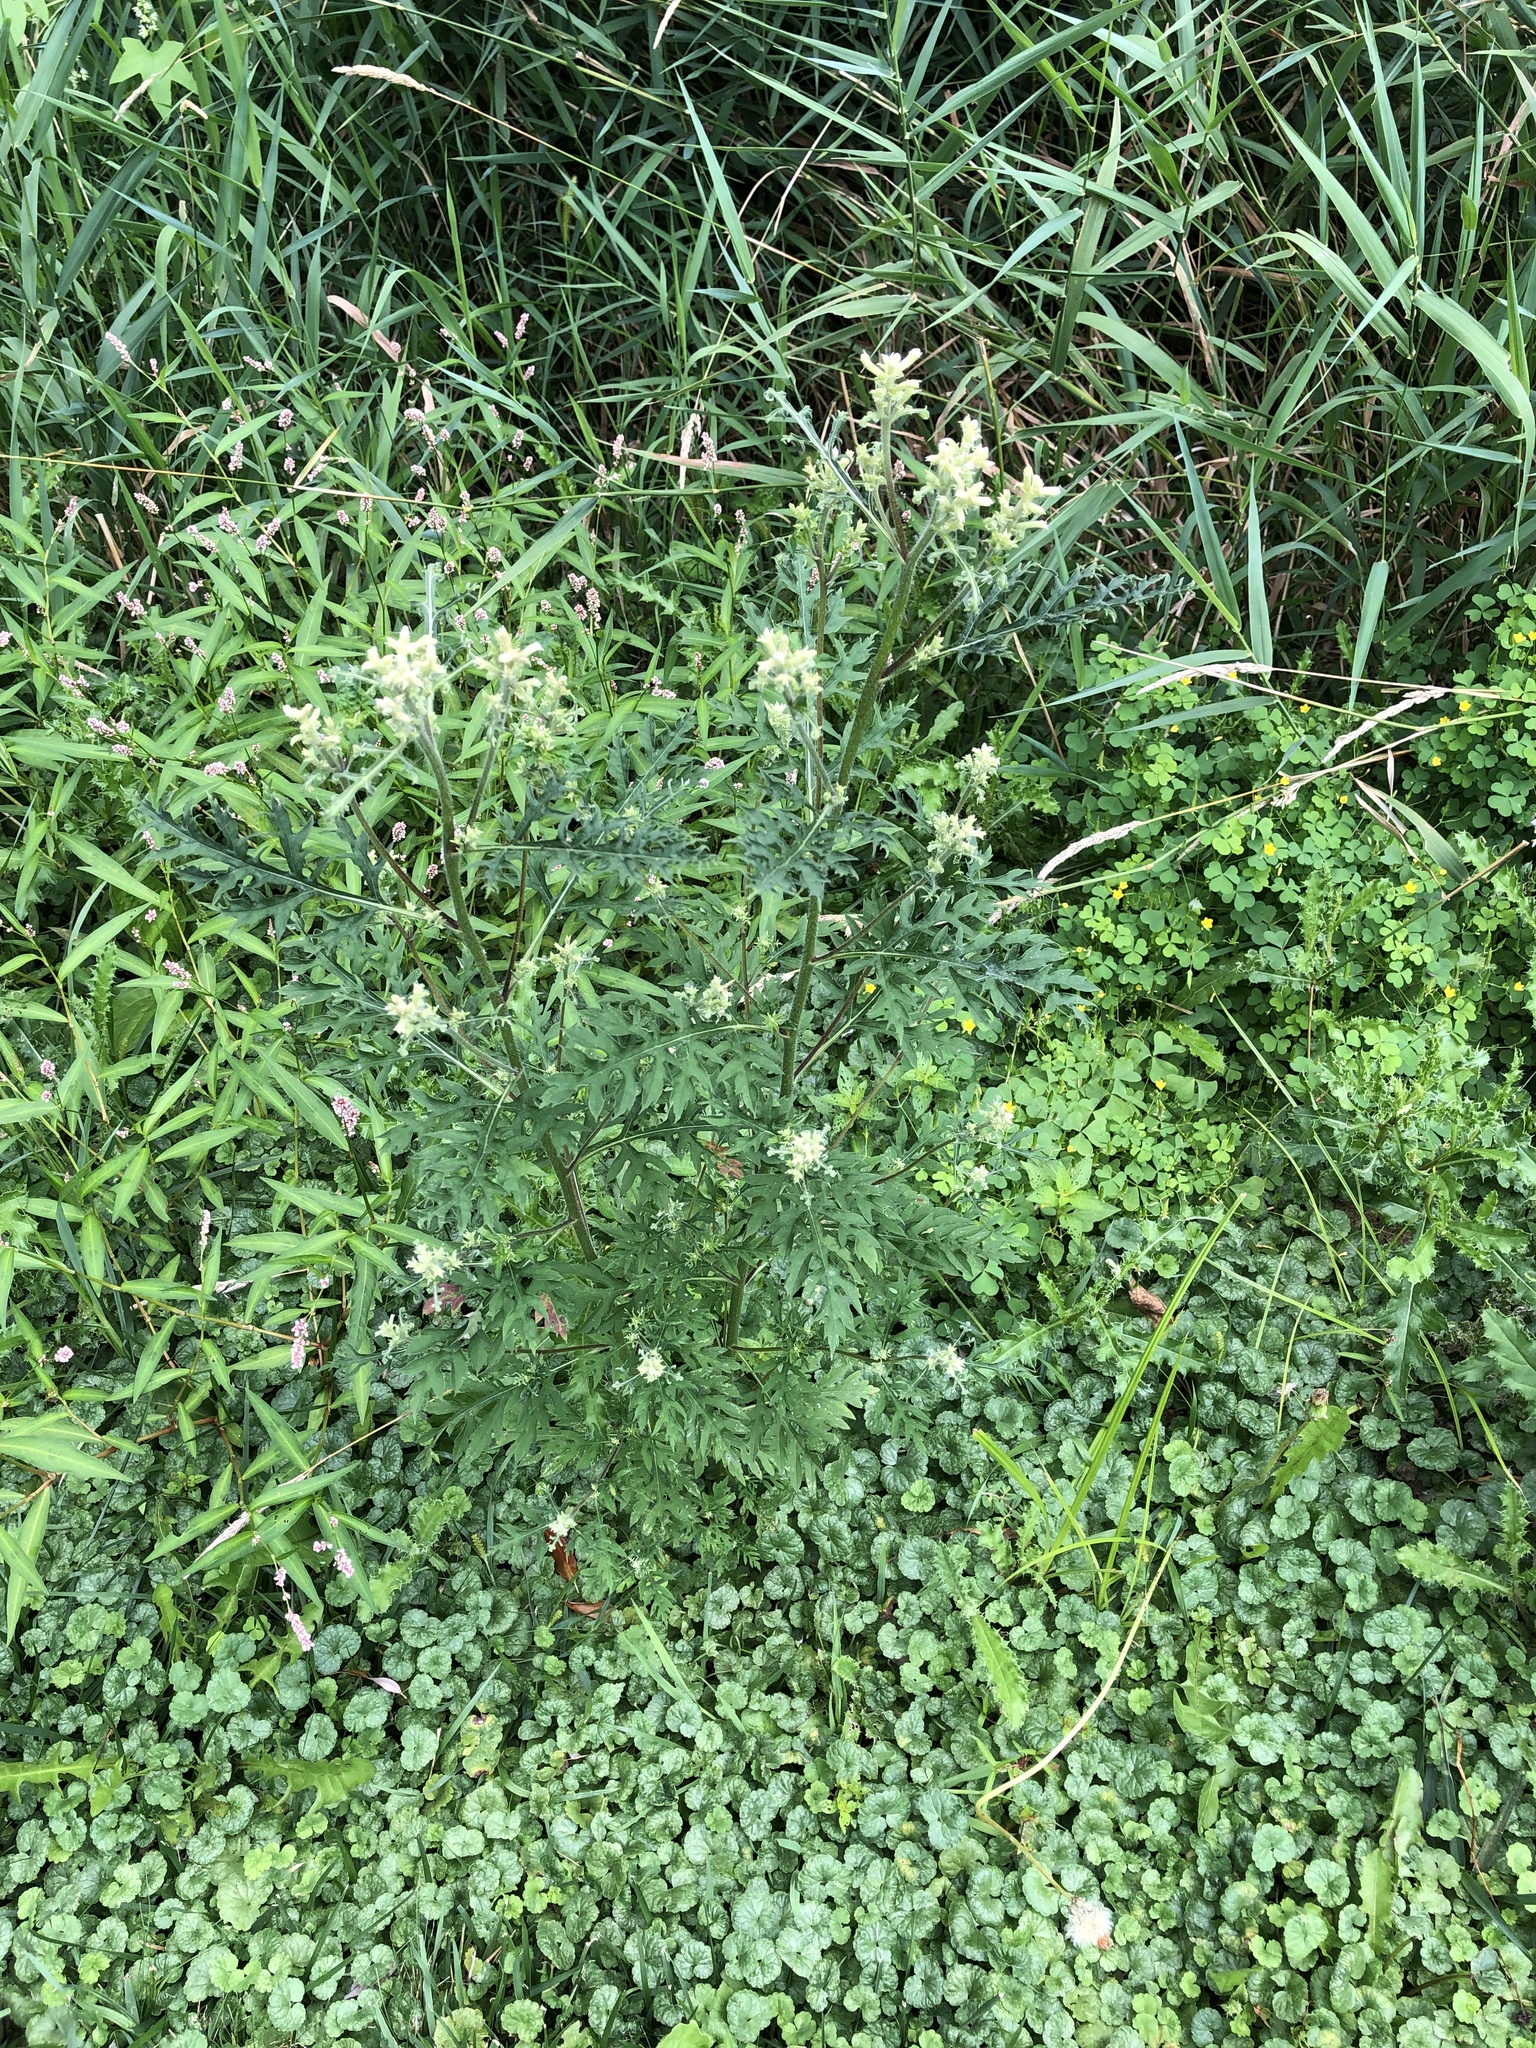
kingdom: Plantae
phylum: Tracheophyta
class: Magnoliopsida
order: Asterales
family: Asteraceae
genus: Ambrosia
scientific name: Ambrosia artemisiifolia
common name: Annual ragweed
